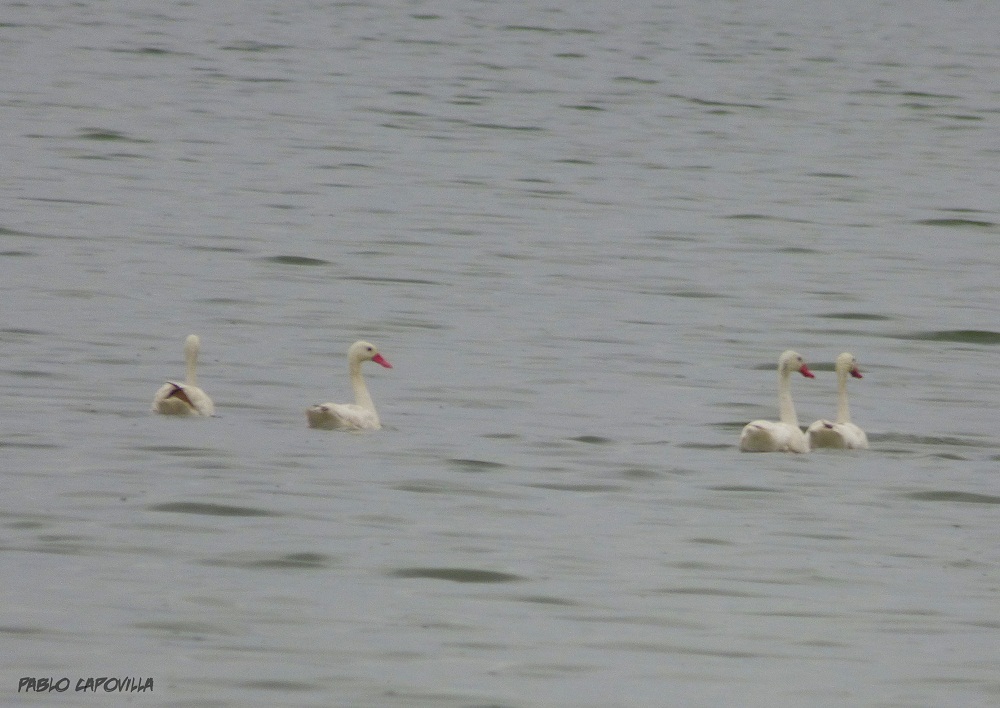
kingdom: Animalia
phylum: Chordata
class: Aves
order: Anseriformes
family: Anatidae
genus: Coscoroba
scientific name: Coscoroba coscoroba
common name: Coscoroba swan
